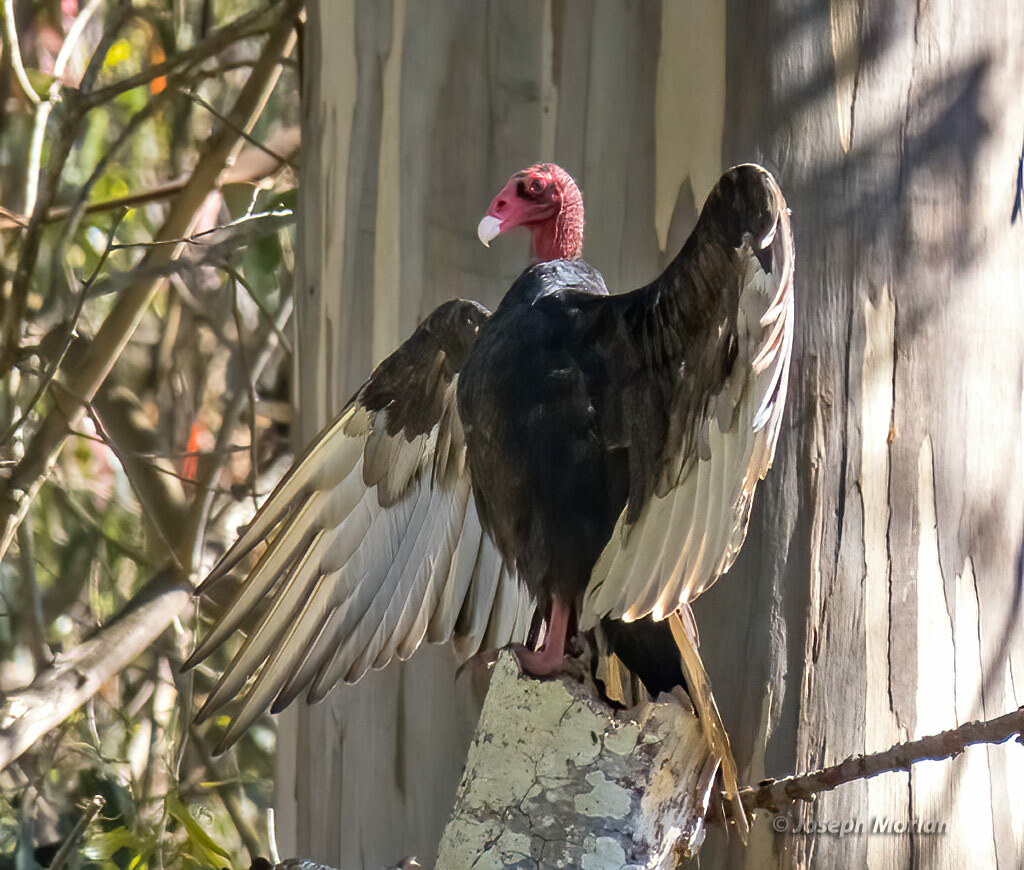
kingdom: Animalia
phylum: Chordata
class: Aves
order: Accipitriformes
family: Cathartidae
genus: Cathartes
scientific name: Cathartes aura
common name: Turkey vulture
